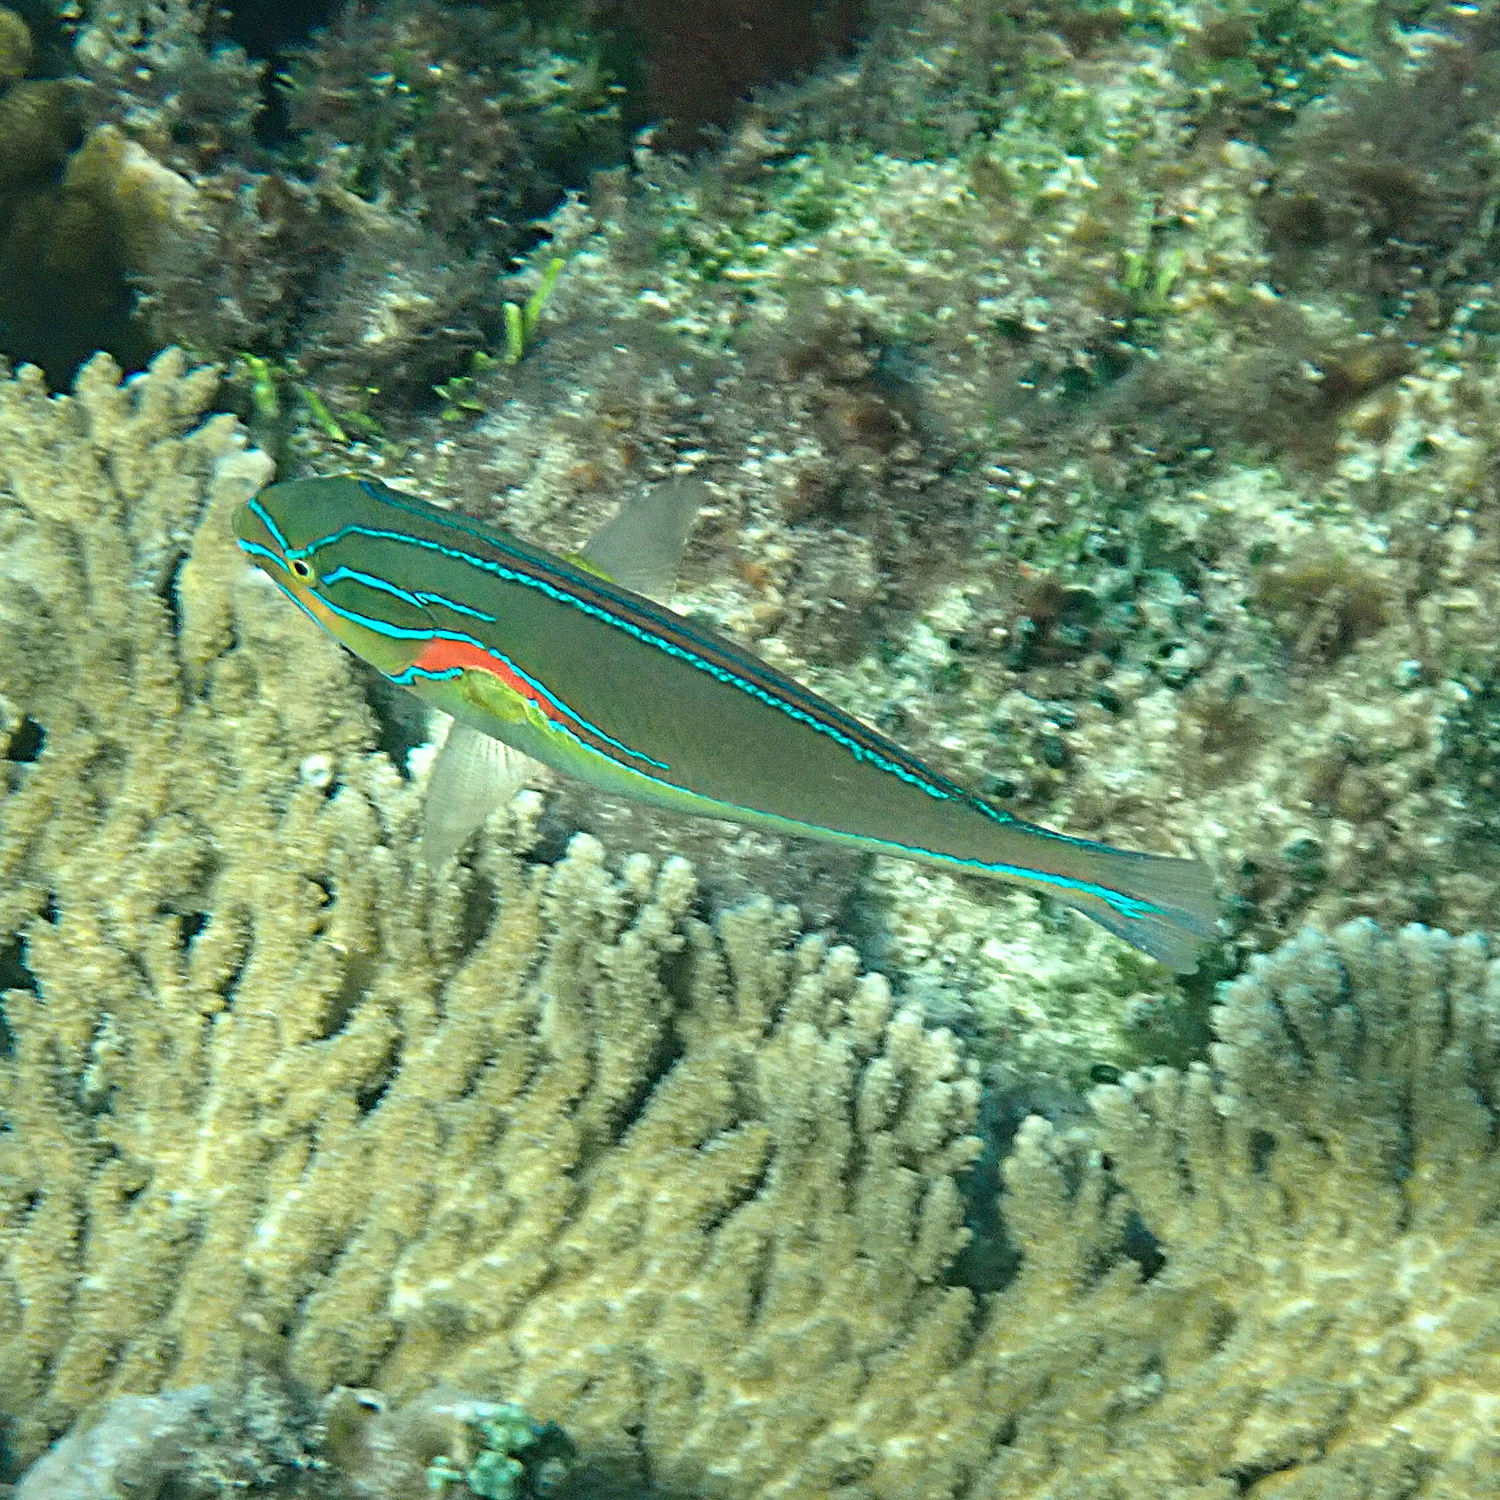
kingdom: Animalia
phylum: Chordata
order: Perciformes
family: Labridae
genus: Stethojulis
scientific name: Stethojulis bandanensis
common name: Red shoulder wrasse
